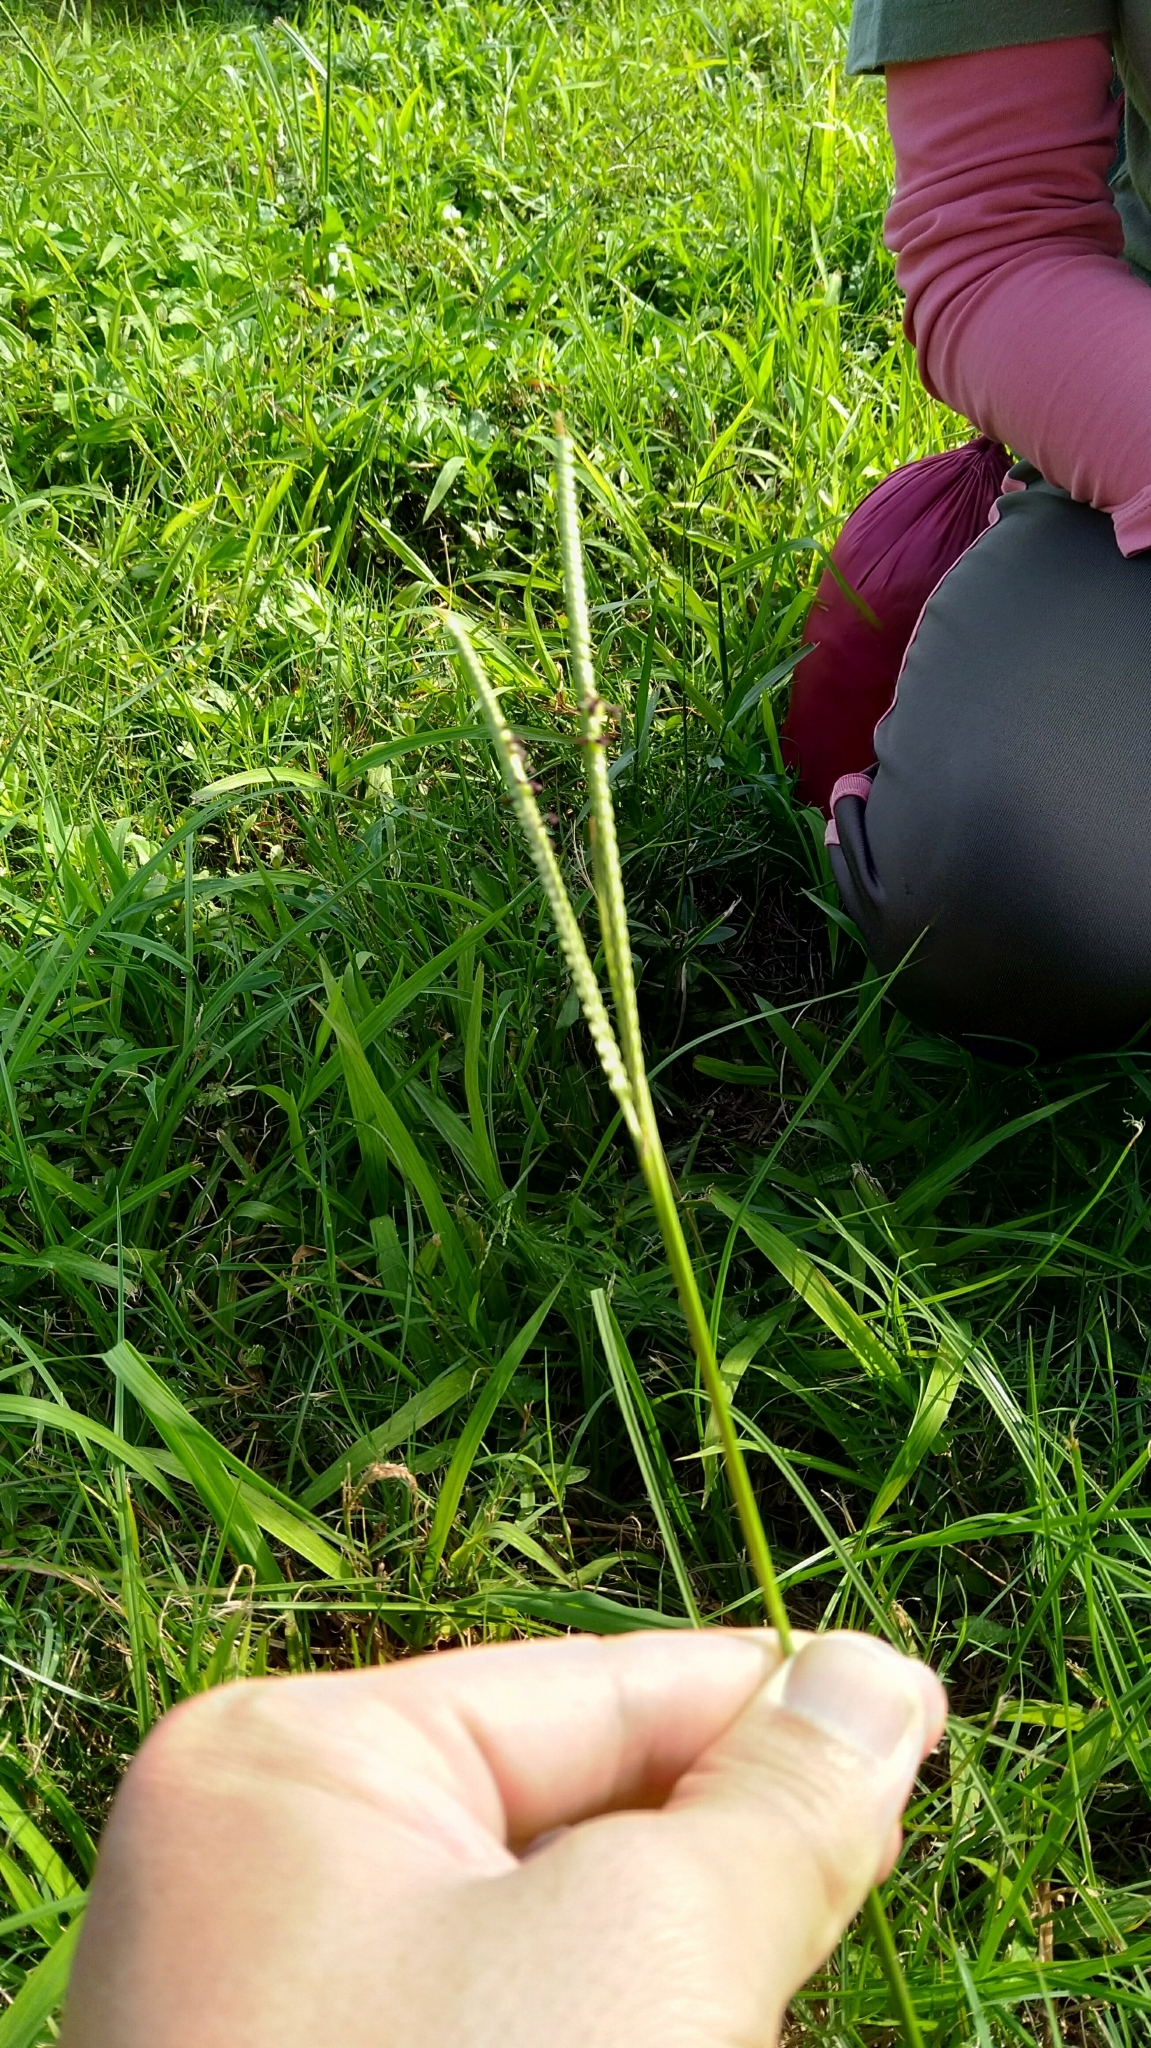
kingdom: Plantae
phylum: Tracheophyta
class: Liliopsida
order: Poales
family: Poaceae
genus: Paspalum
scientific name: Paspalum distichum
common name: Knotgrass
